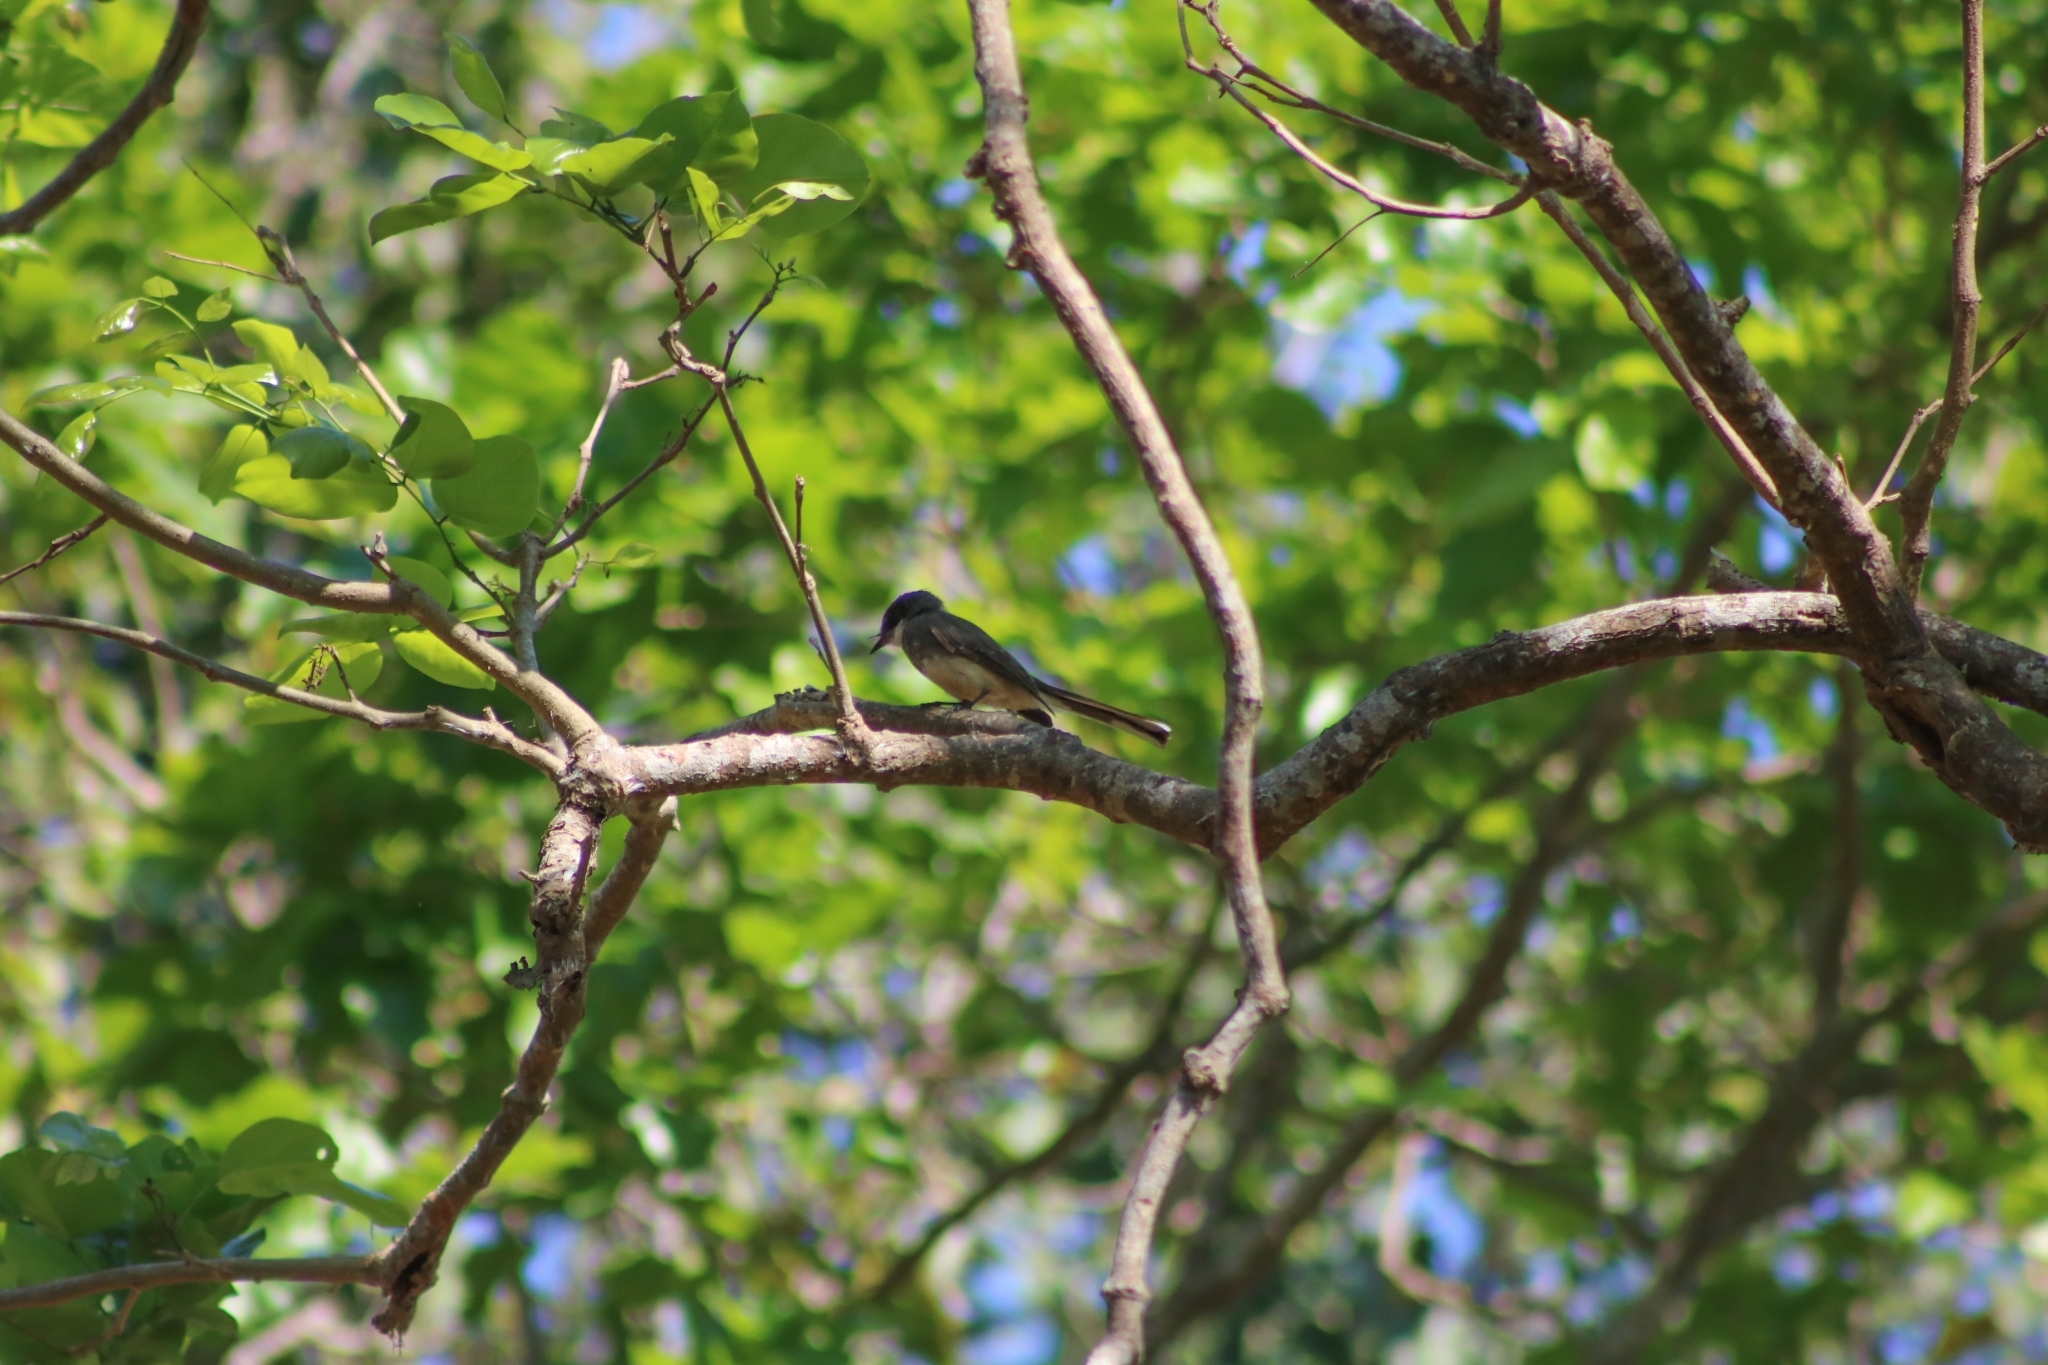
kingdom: Animalia
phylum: Chordata
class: Aves
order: Passeriformes
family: Rhipiduridae
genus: Rhipidura
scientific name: Rhipidura rufiventris
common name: Northern fantail
